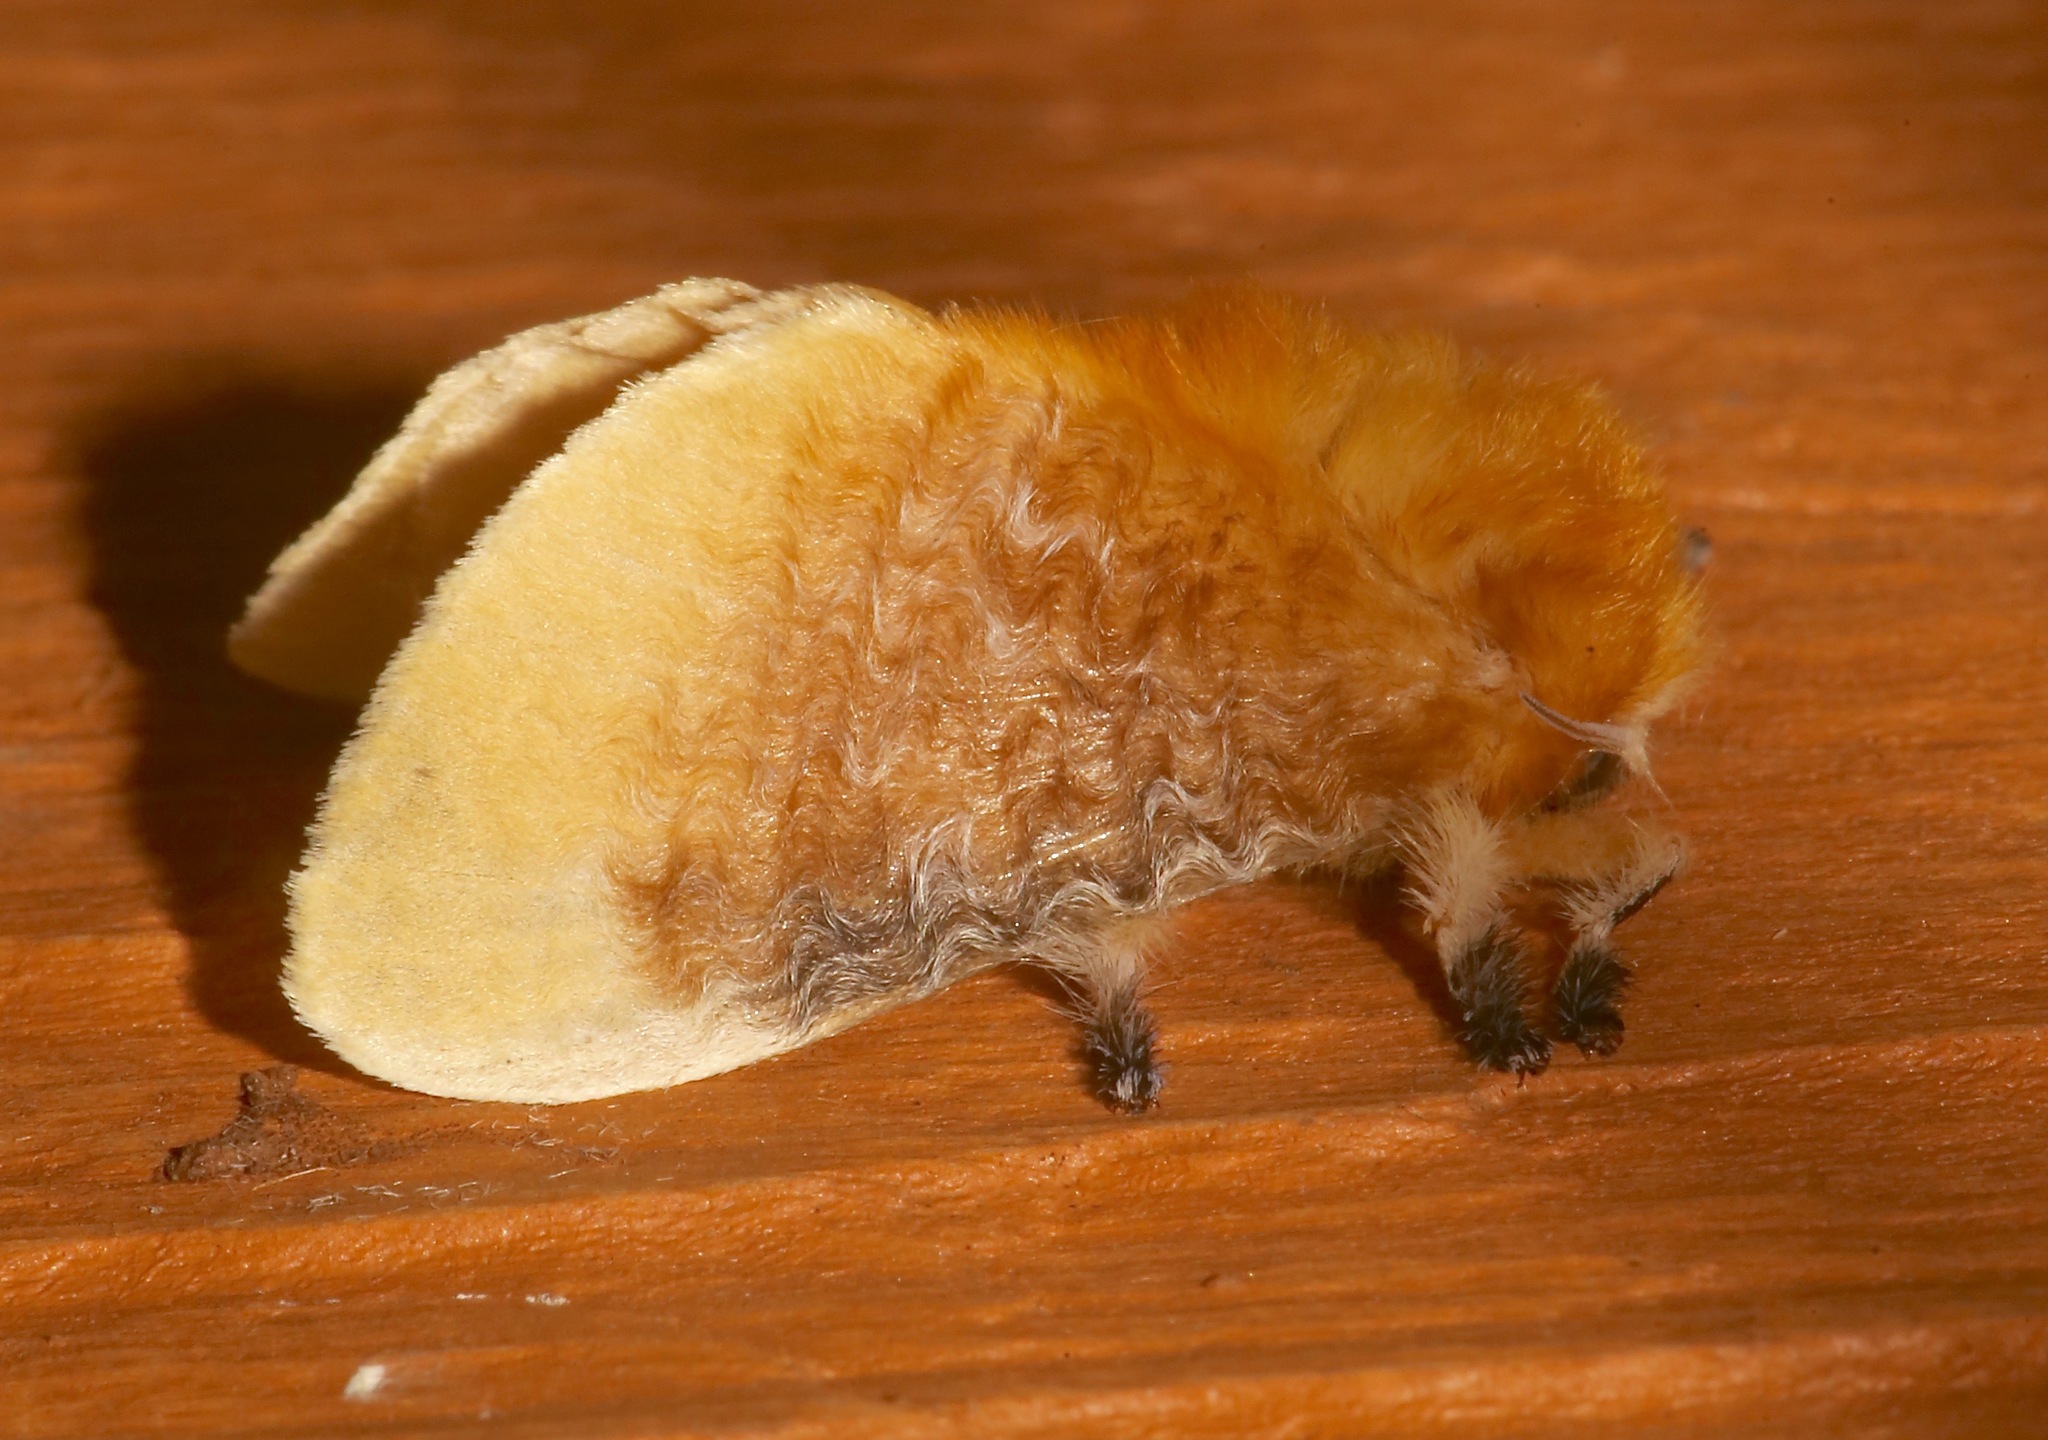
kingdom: Animalia
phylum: Arthropoda
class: Insecta
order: Lepidoptera
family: Megalopygidae
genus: Megalopyge
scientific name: Megalopyge opercularis
